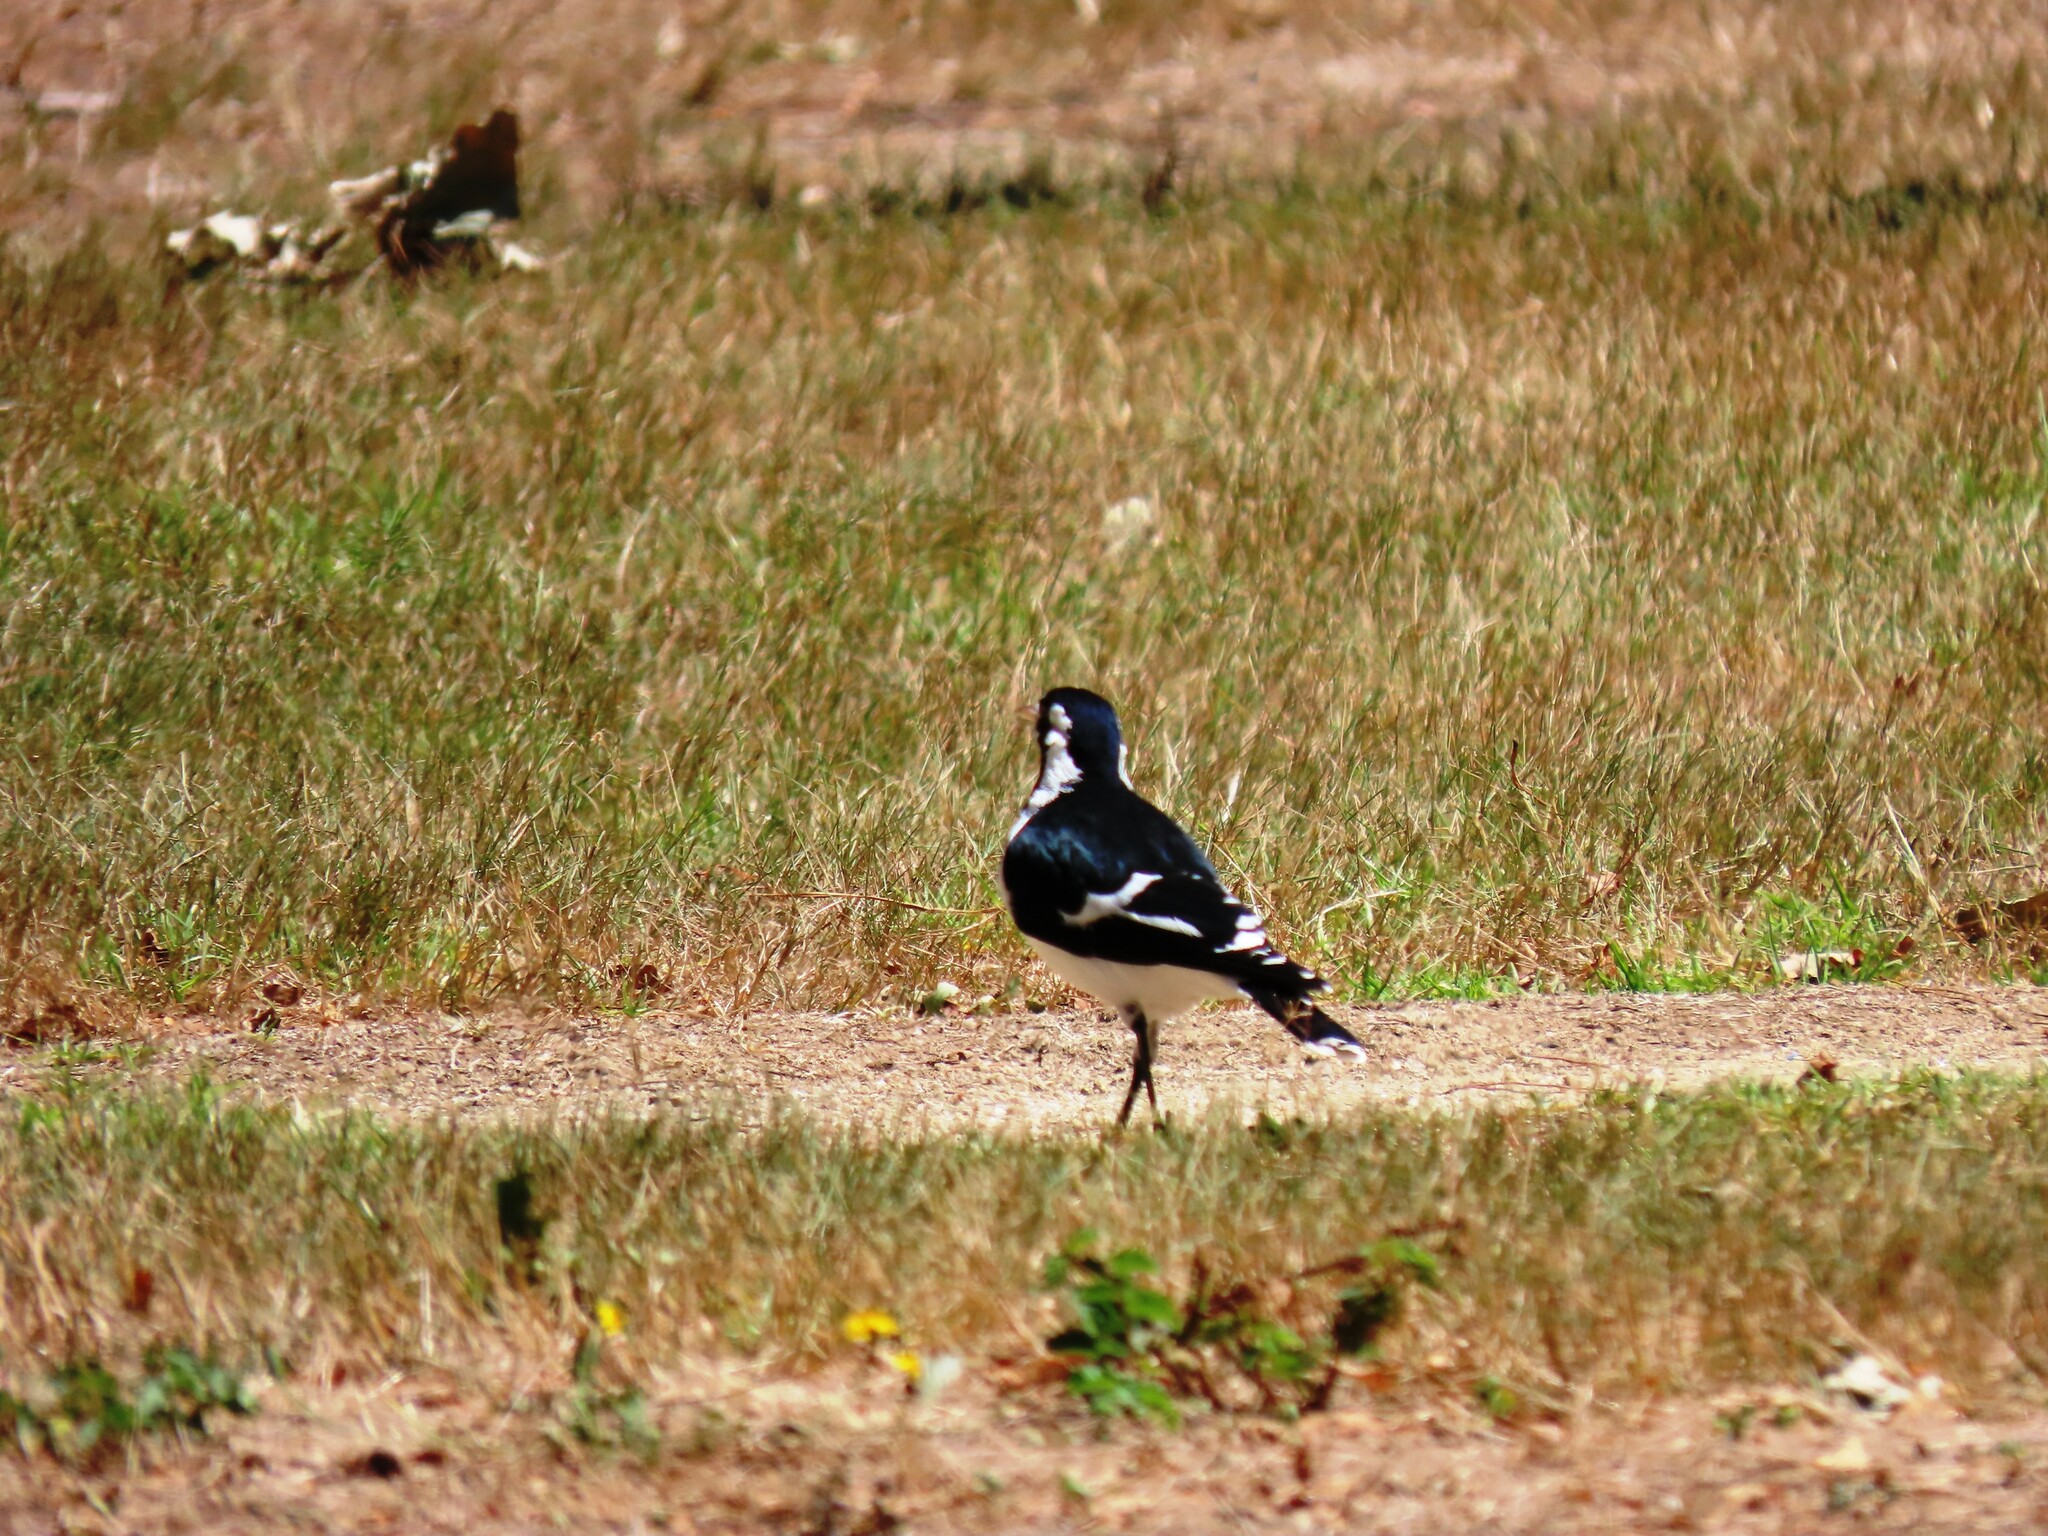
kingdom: Animalia
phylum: Chordata
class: Aves
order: Passeriformes
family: Monarchidae
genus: Grallina
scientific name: Grallina cyanoleuca
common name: Magpie-lark
